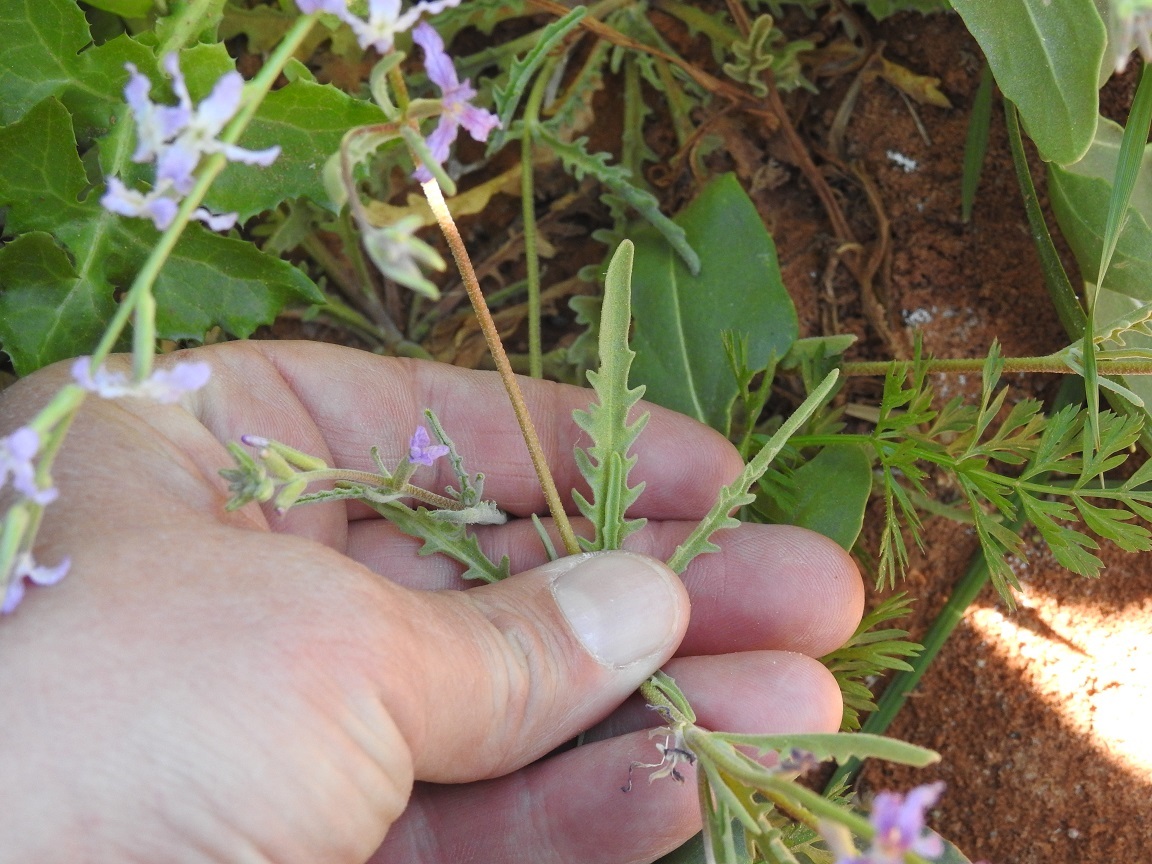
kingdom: Plantae
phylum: Tracheophyta
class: Magnoliopsida
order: Brassicales
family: Brassicaceae
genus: Matthiola
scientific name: Matthiola longipetala
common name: Night-scented stock
